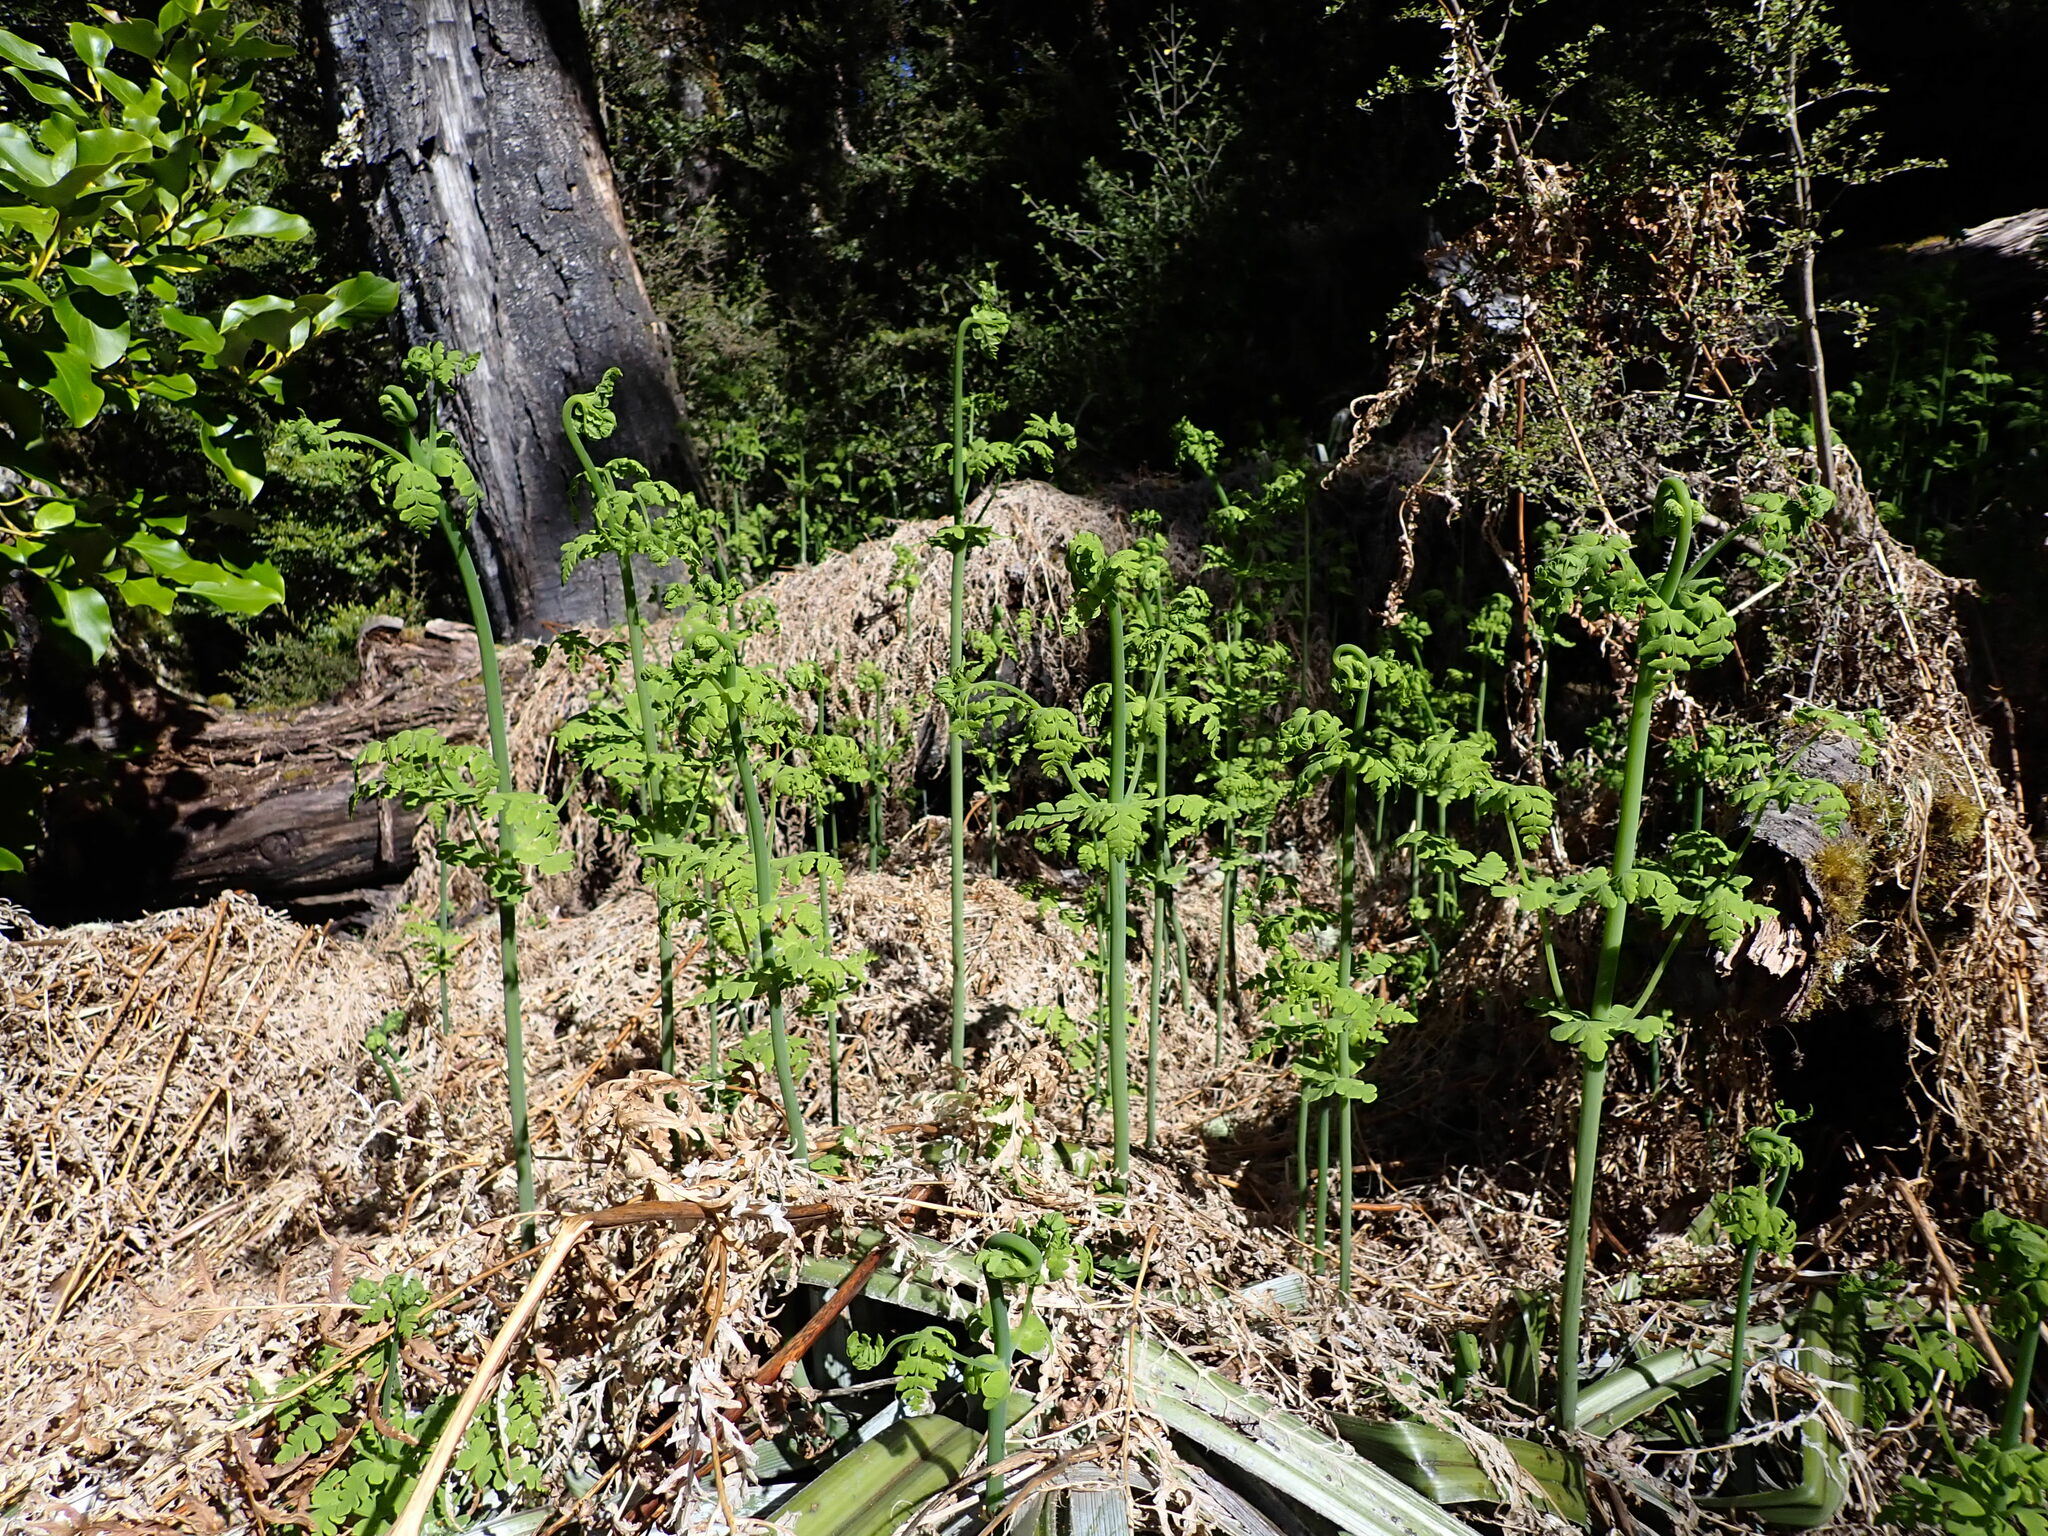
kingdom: Plantae
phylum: Tracheophyta
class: Polypodiopsida
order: Polypodiales
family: Dennstaedtiaceae
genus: Histiopteris
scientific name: Histiopteris incisa
